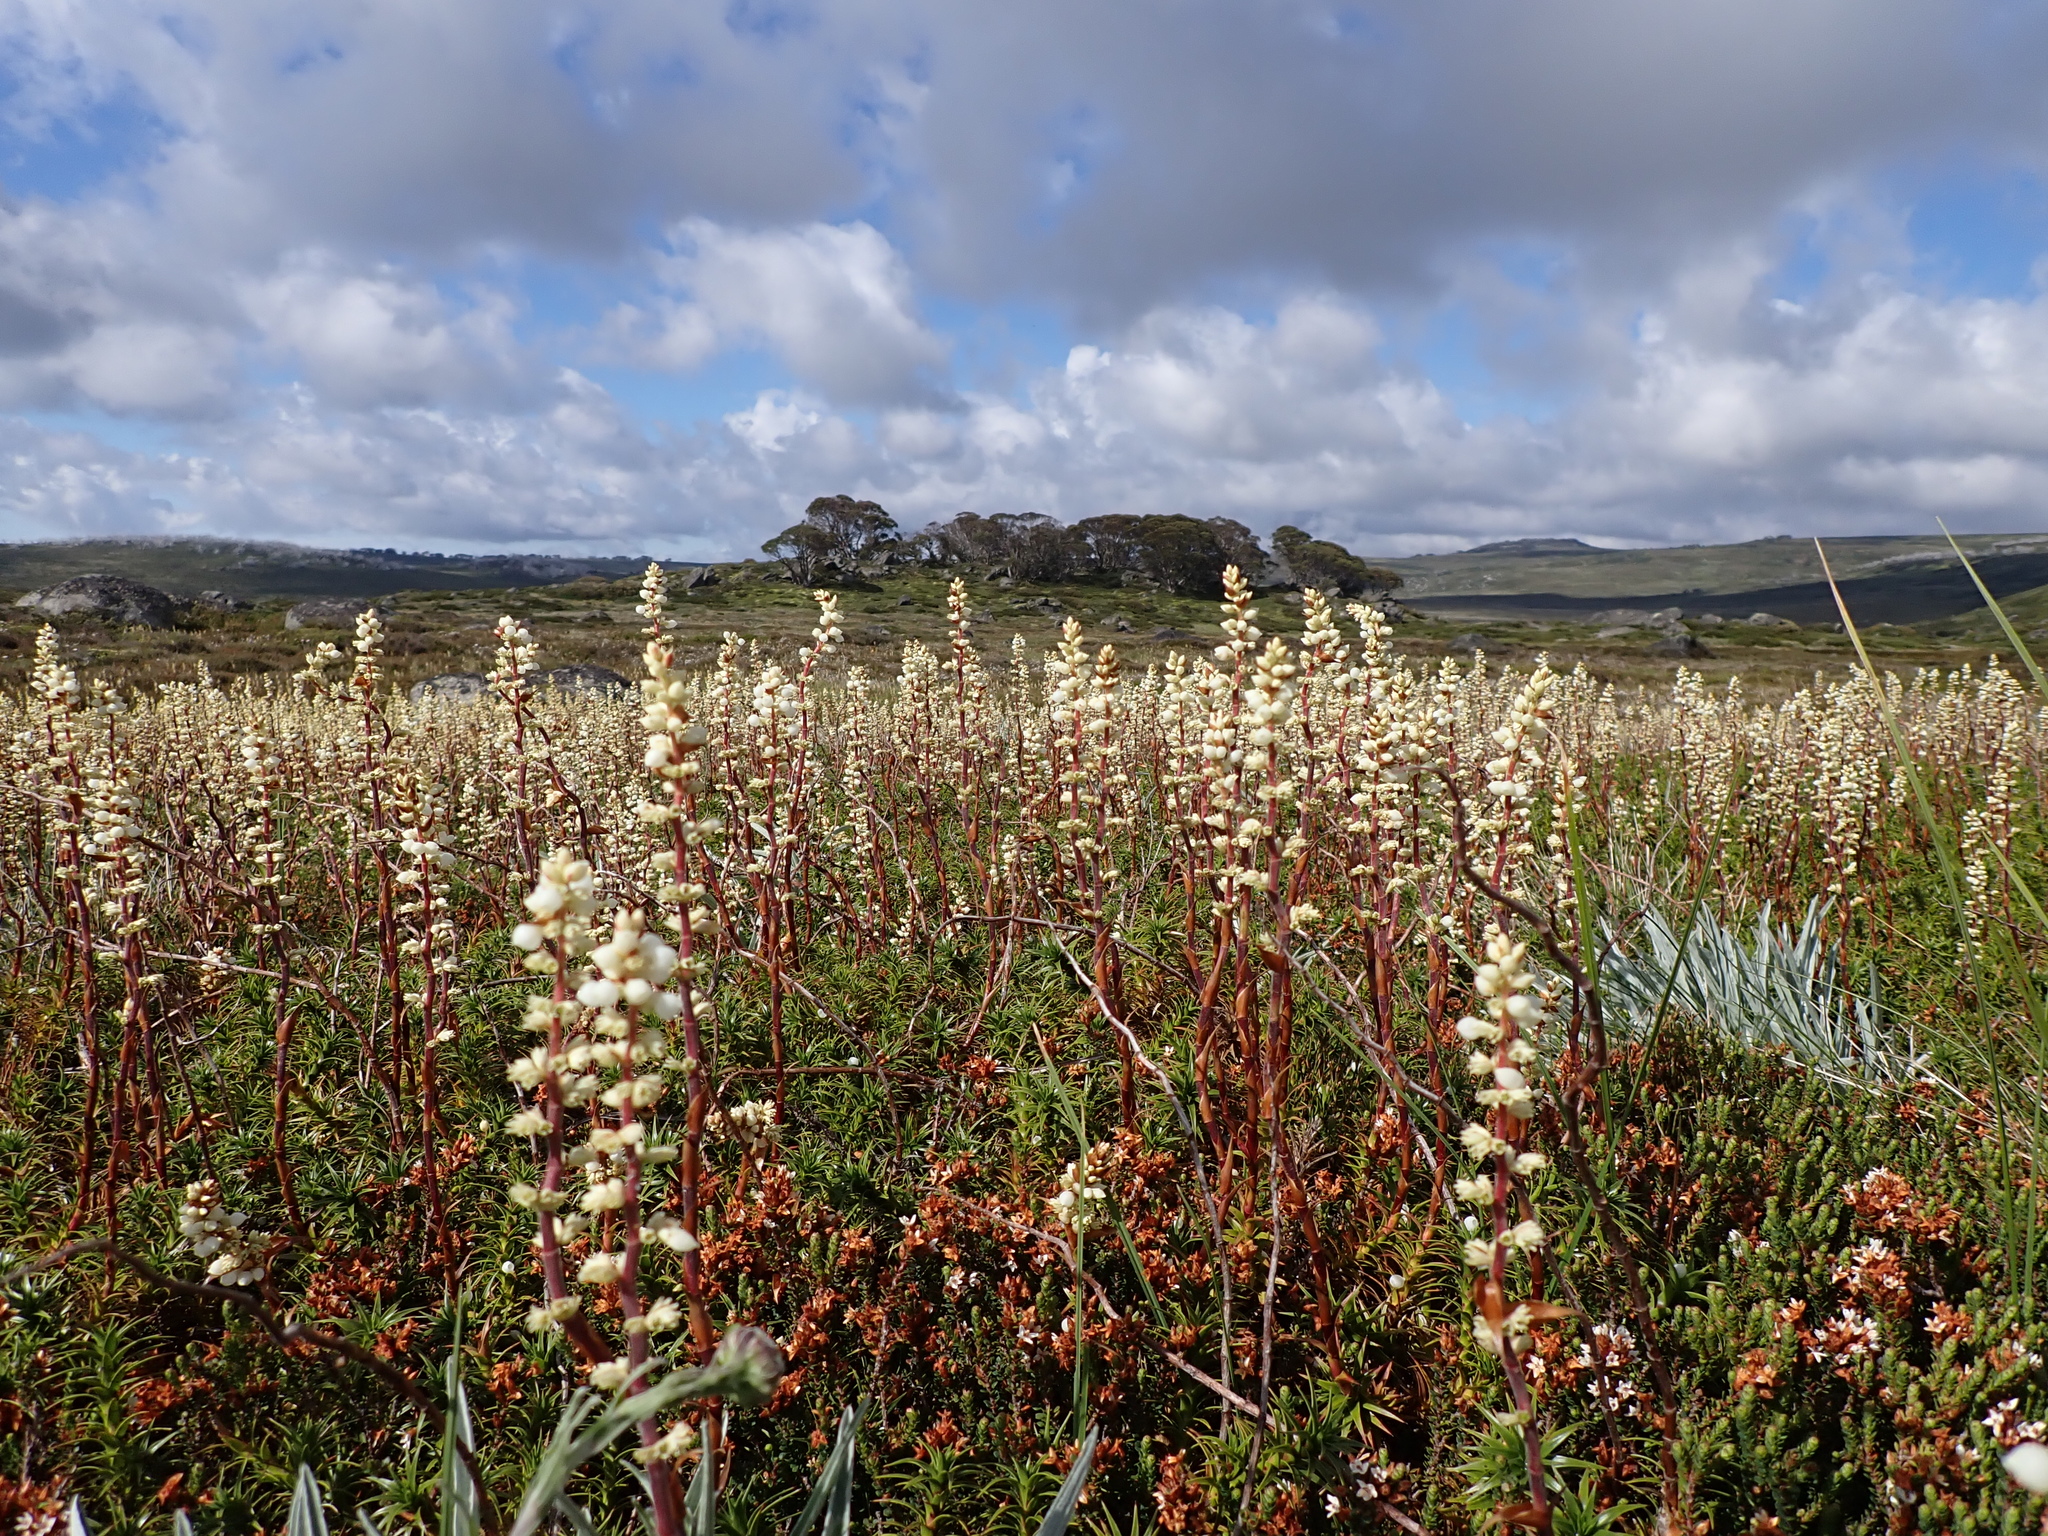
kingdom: Plantae
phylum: Tracheophyta
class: Magnoliopsida
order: Ericales
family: Ericaceae
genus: Dracophyllum
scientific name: Dracophyllum continentis
